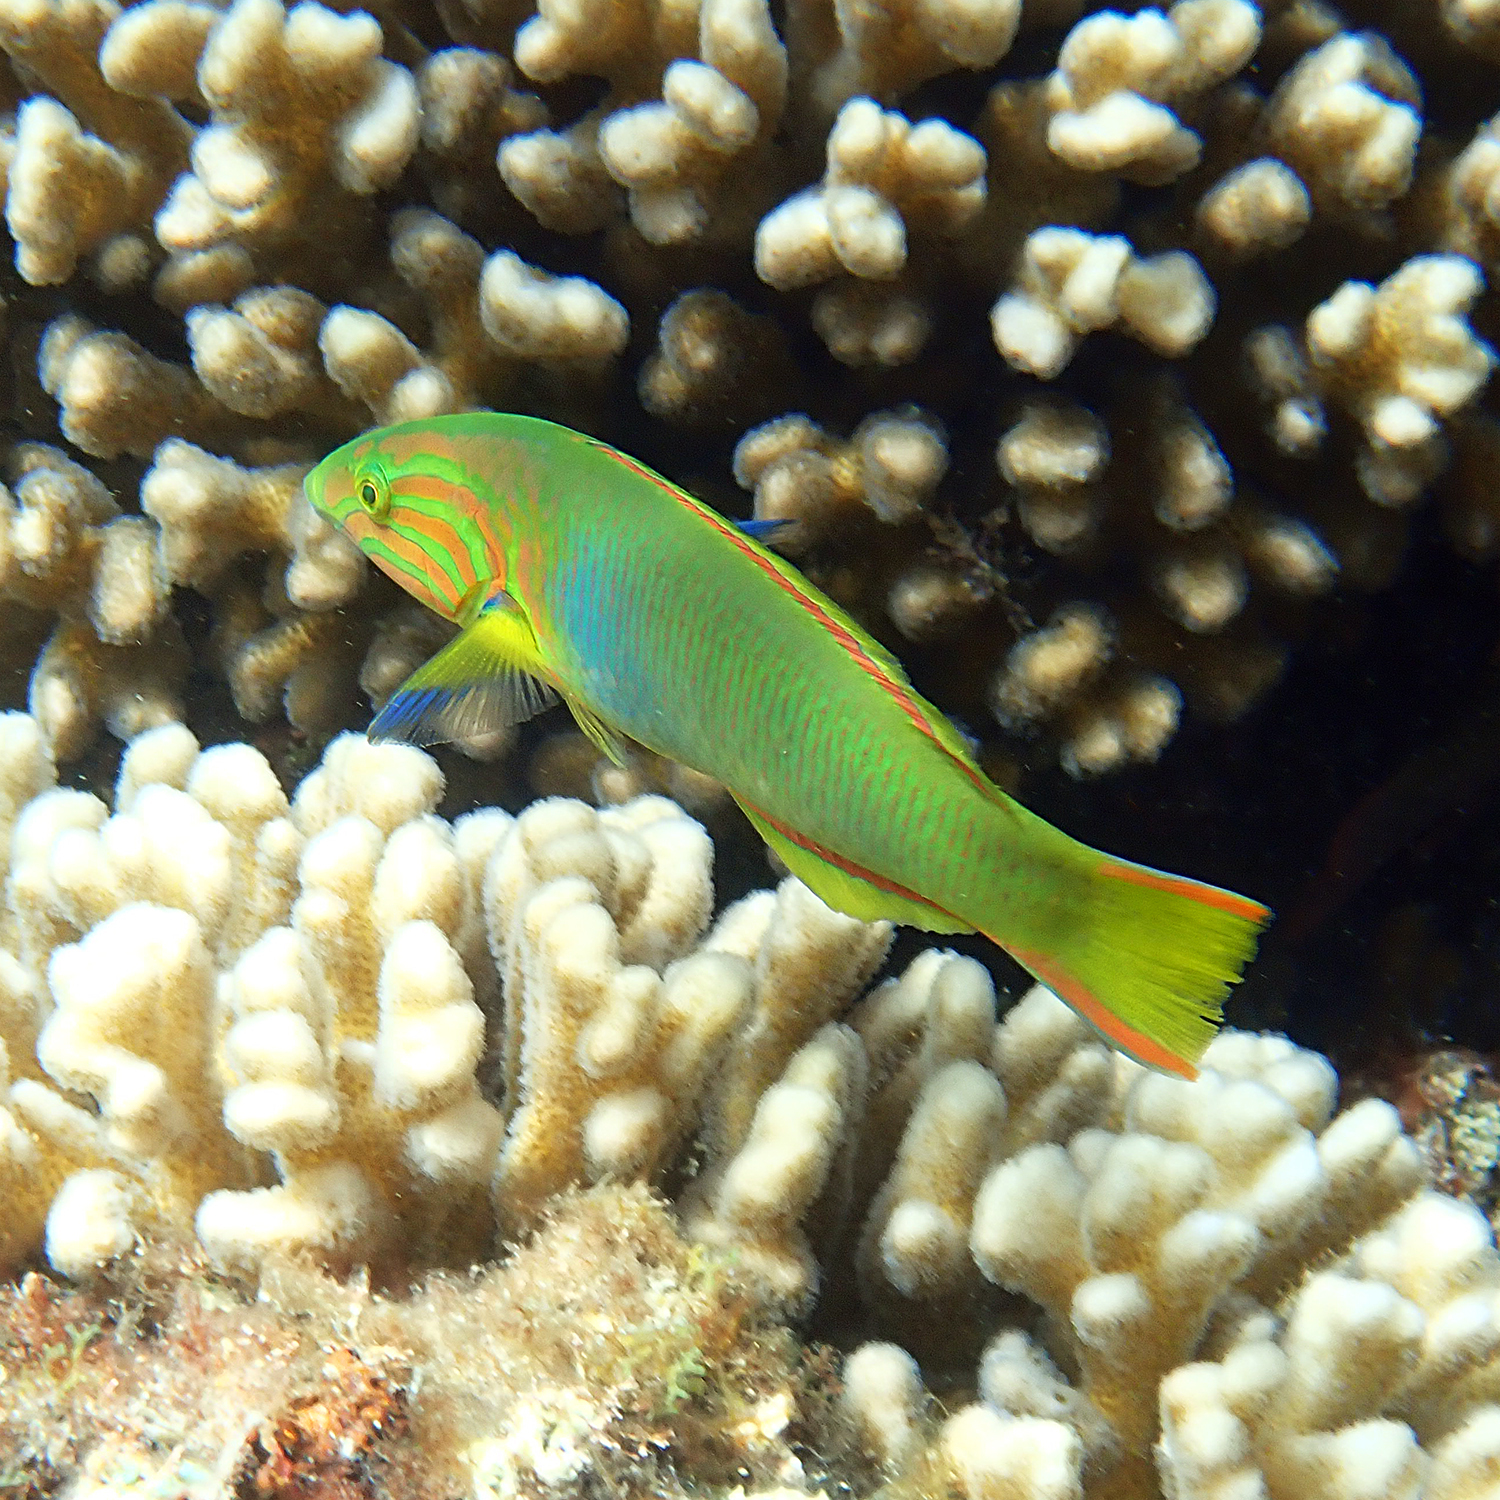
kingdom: Animalia
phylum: Chordata
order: Perciformes
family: Labridae
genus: Thalassoma
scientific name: Thalassoma lutescens
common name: Green moon wrasse
